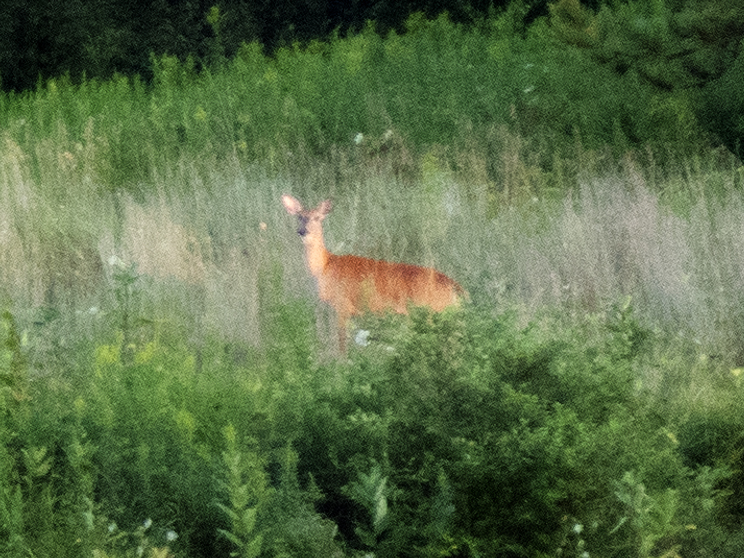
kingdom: Animalia
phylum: Chordata
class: Mammalia
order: Artiodactyla
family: Cervidae
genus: Odocoileus
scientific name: Odocoileus virginianus
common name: White-tailed deer
